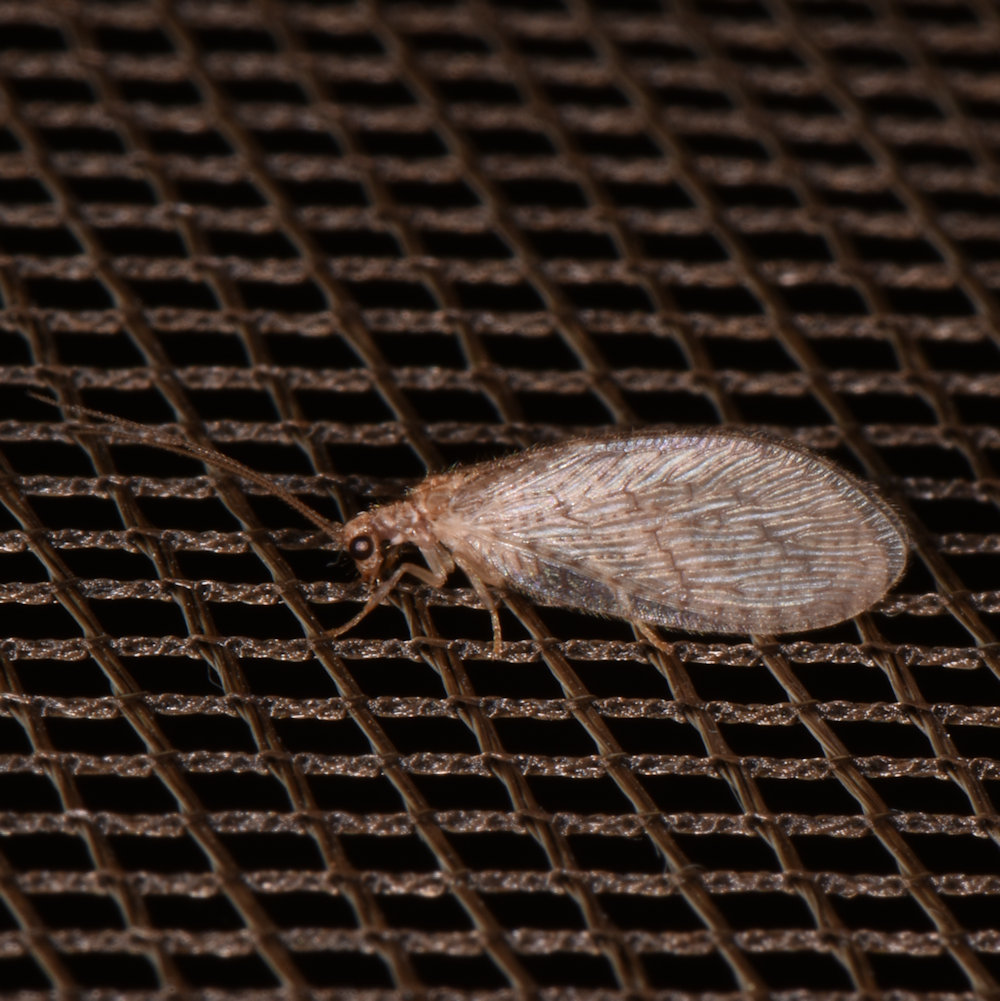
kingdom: Animalia
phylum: Arthropoda
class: Insecta
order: Neuroptera
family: Hemerobiidae
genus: Micromus
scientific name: Micromus posticus
